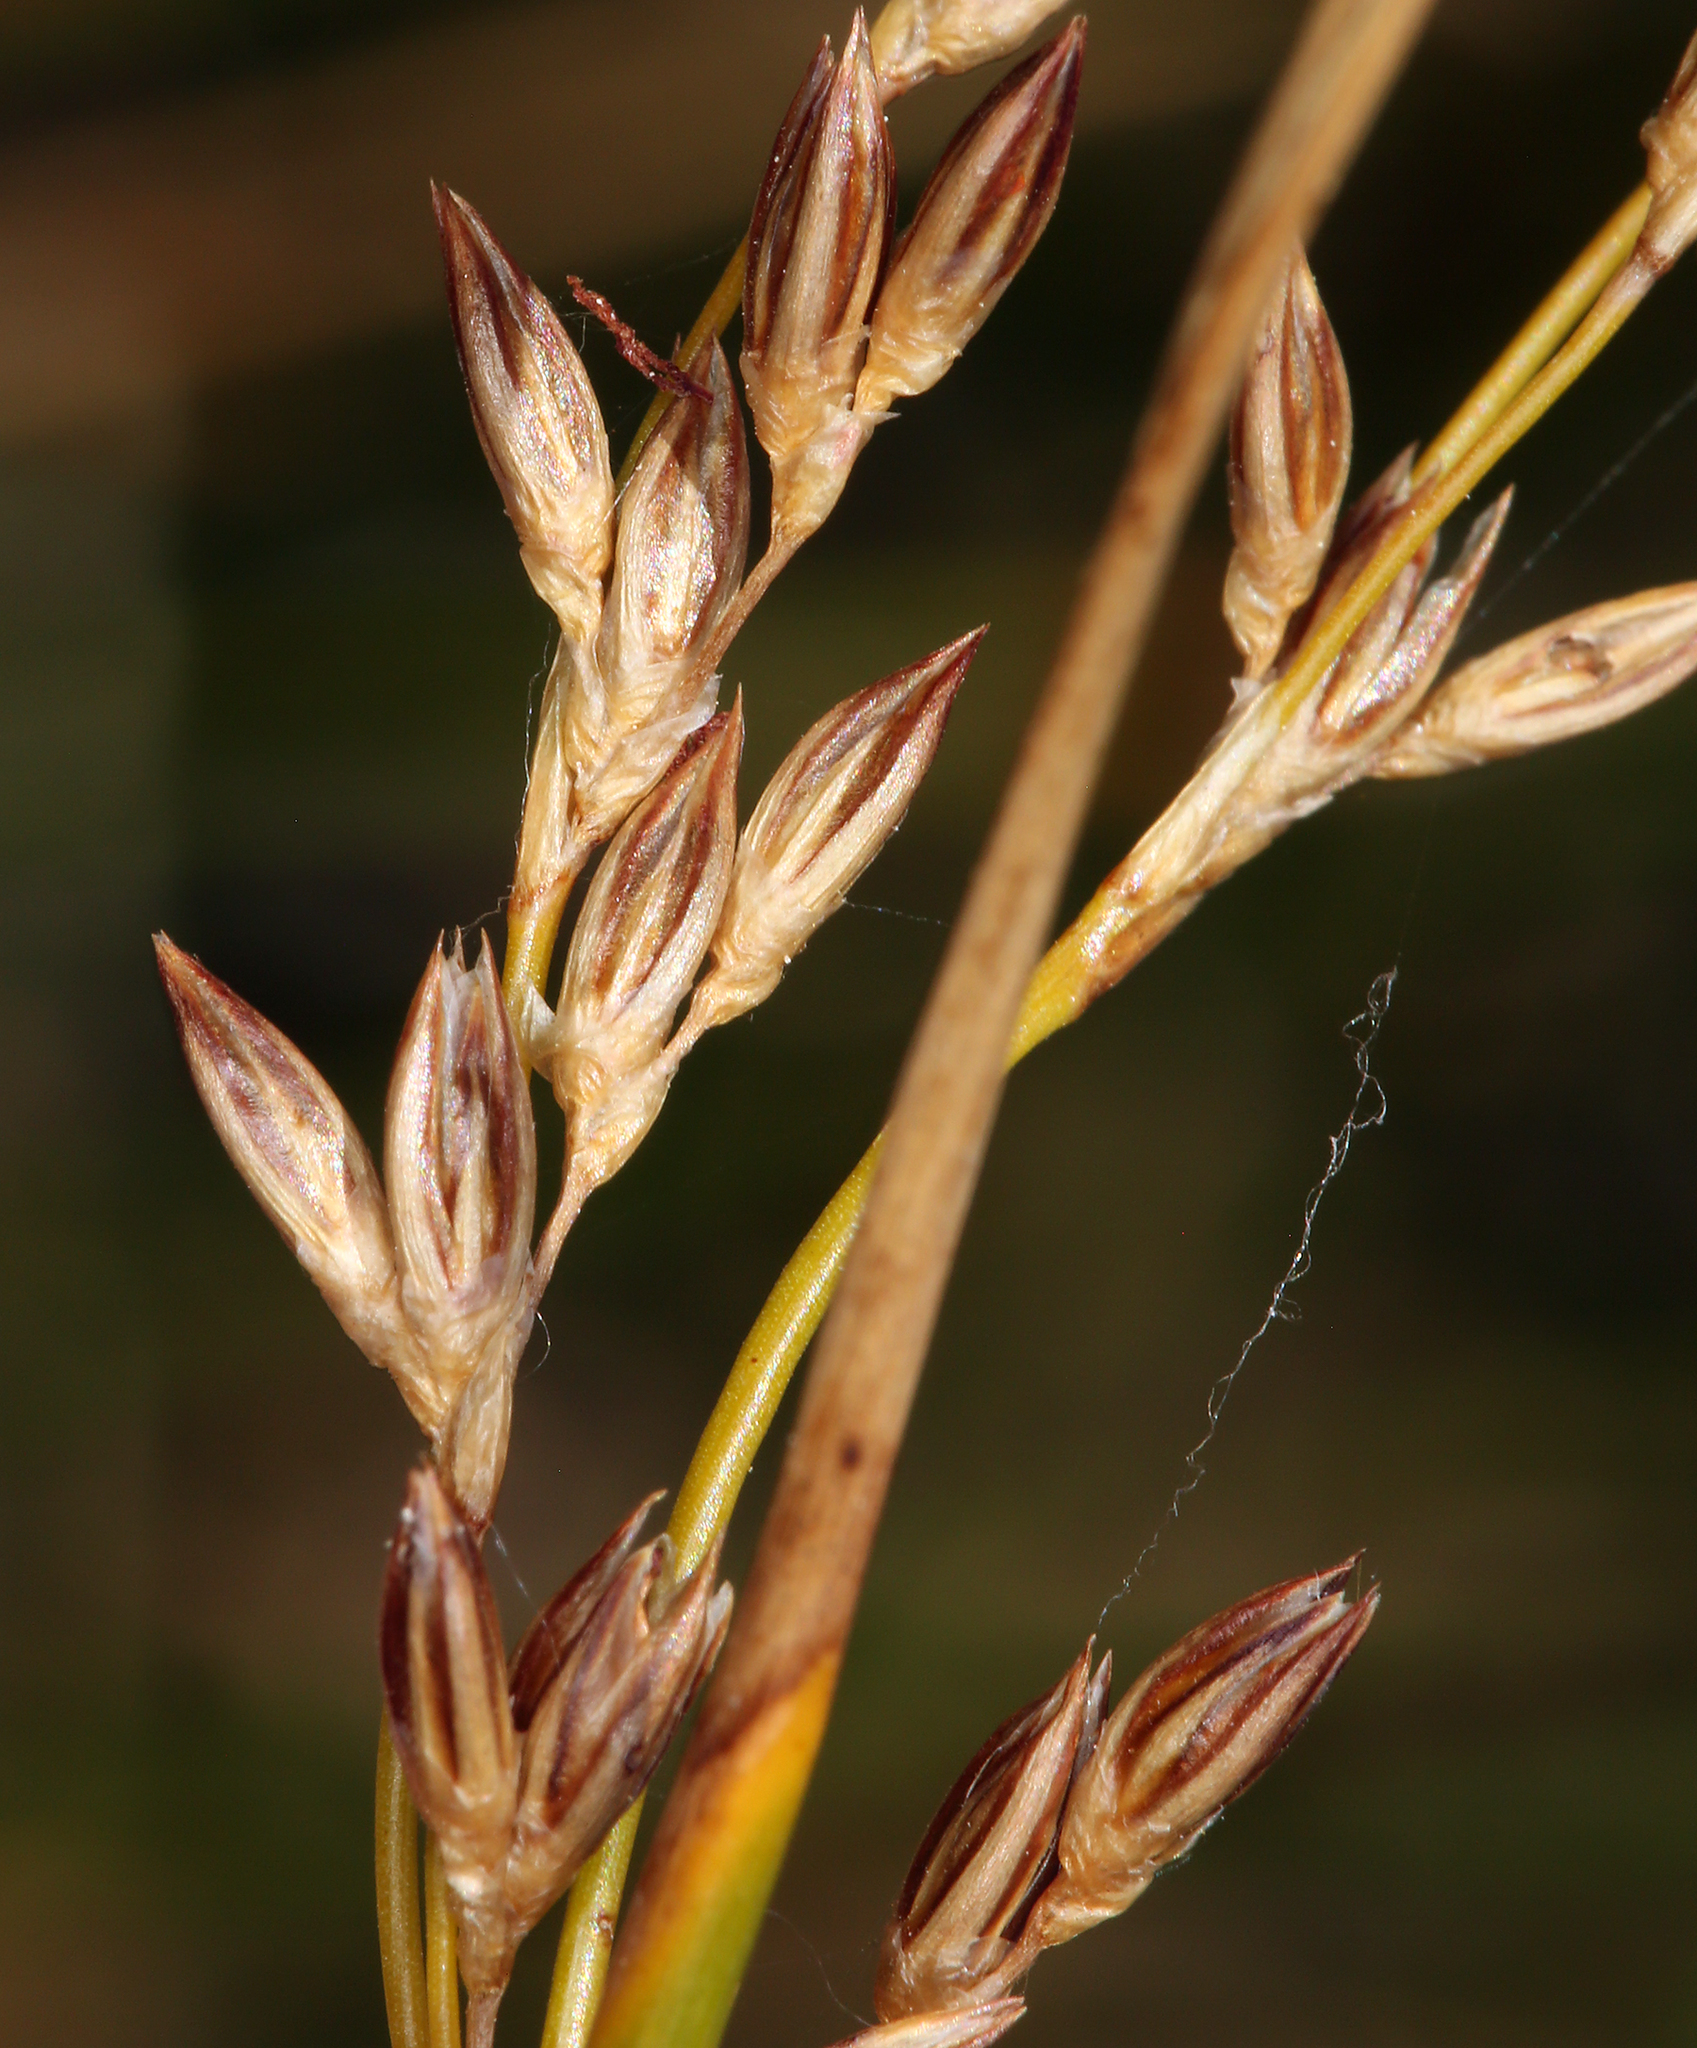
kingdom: Plantae
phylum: Tracheophyta
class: Liliopsida
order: Poales
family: Juncaceae
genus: Juncus
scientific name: Juncus balticus
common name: Baltic rush
